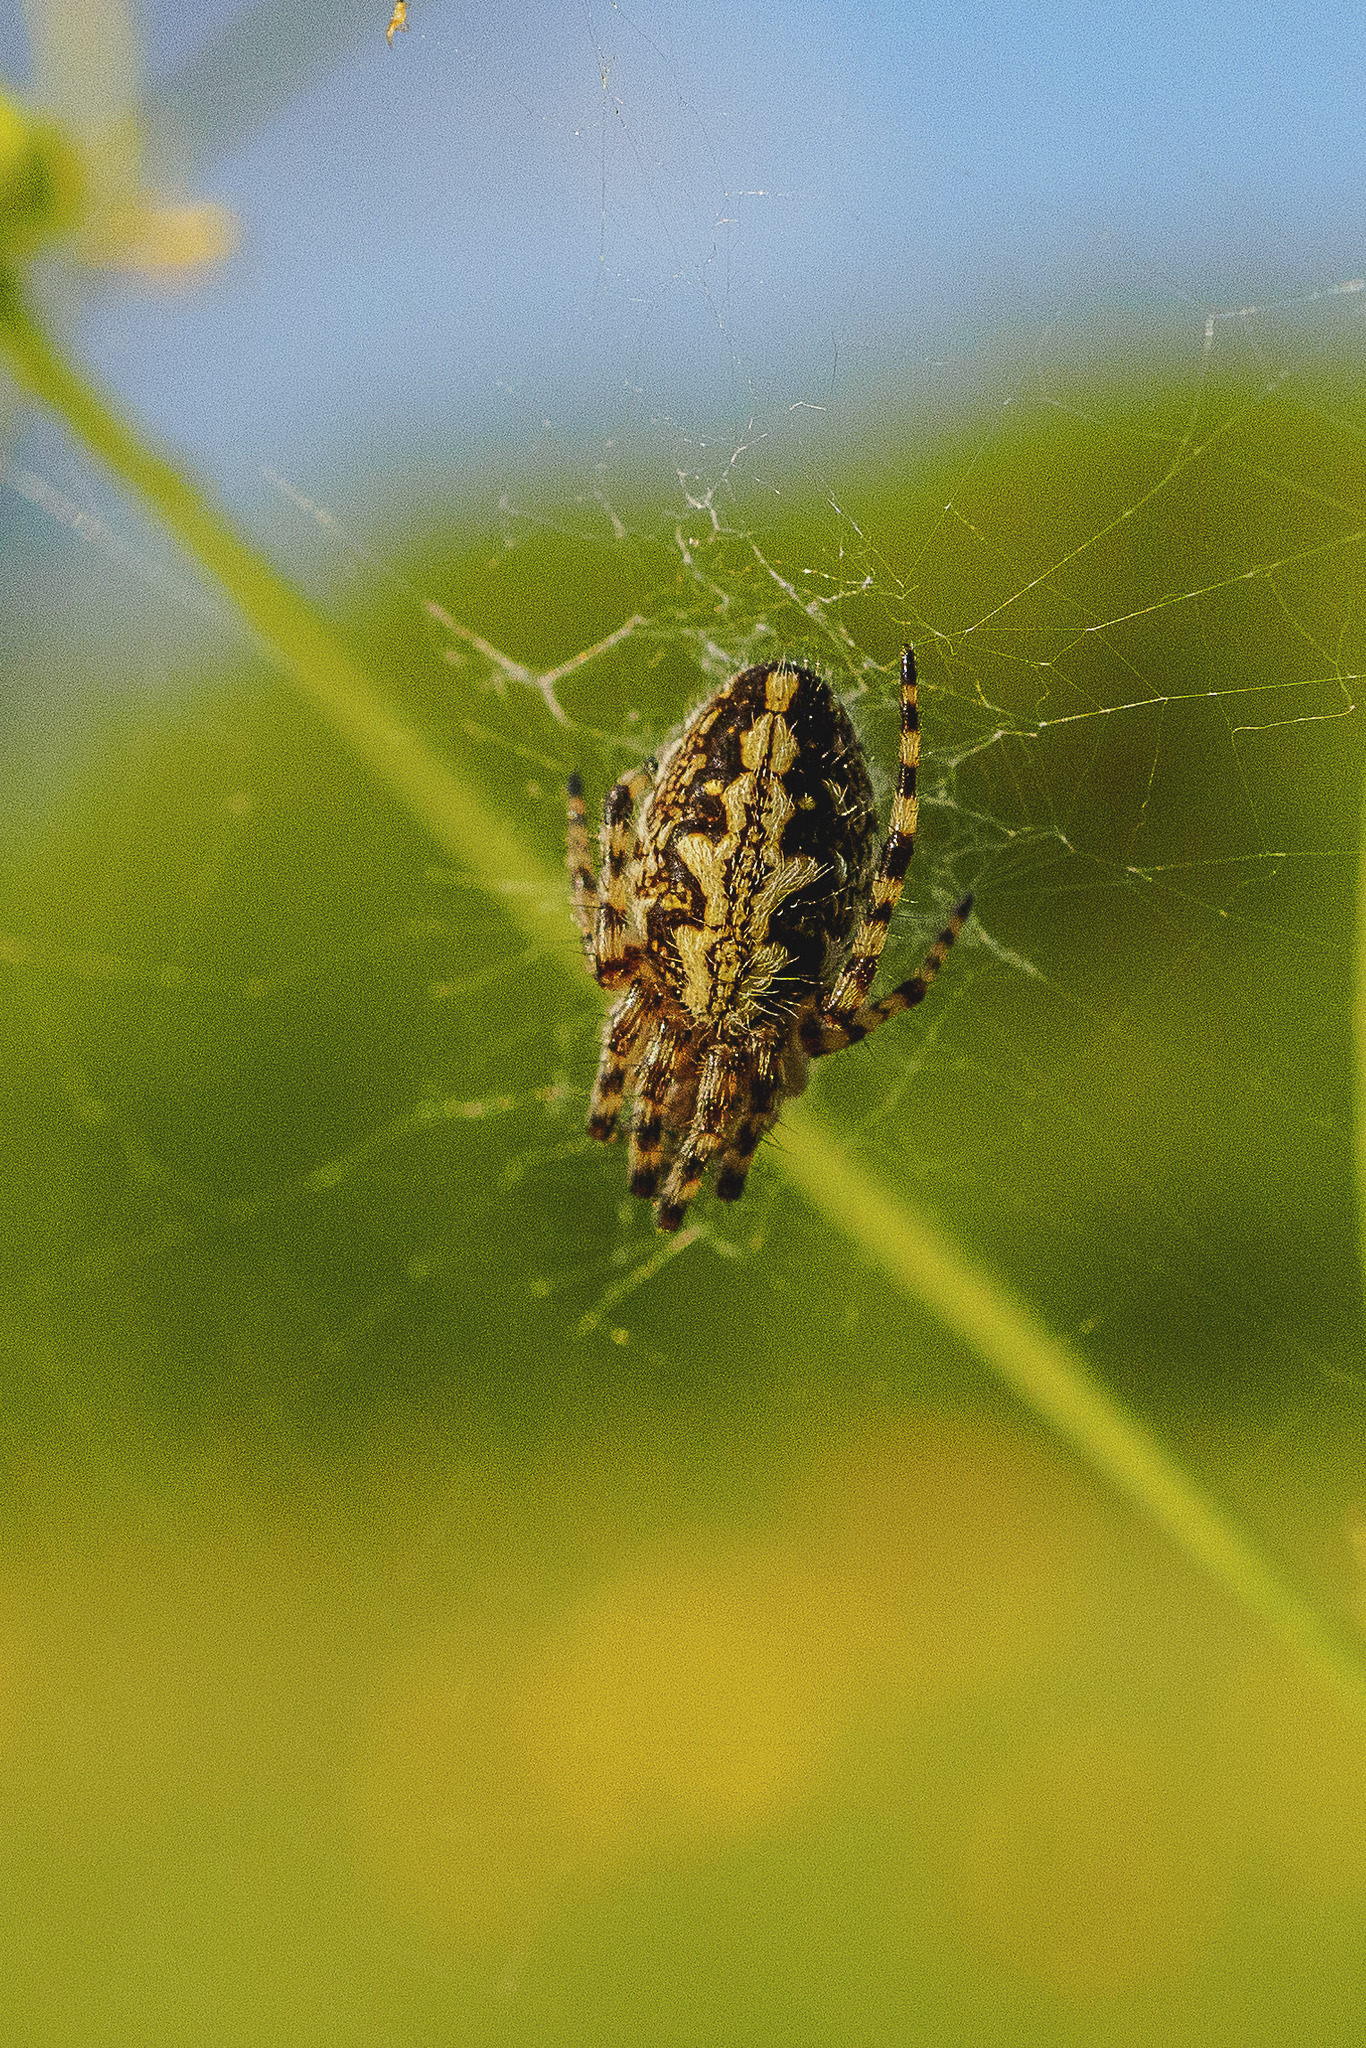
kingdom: Animalia
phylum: Arthropoda
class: Arachnida
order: Araneae
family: Araneidae
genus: Aculepeira
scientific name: Aculepeira ceropegia
